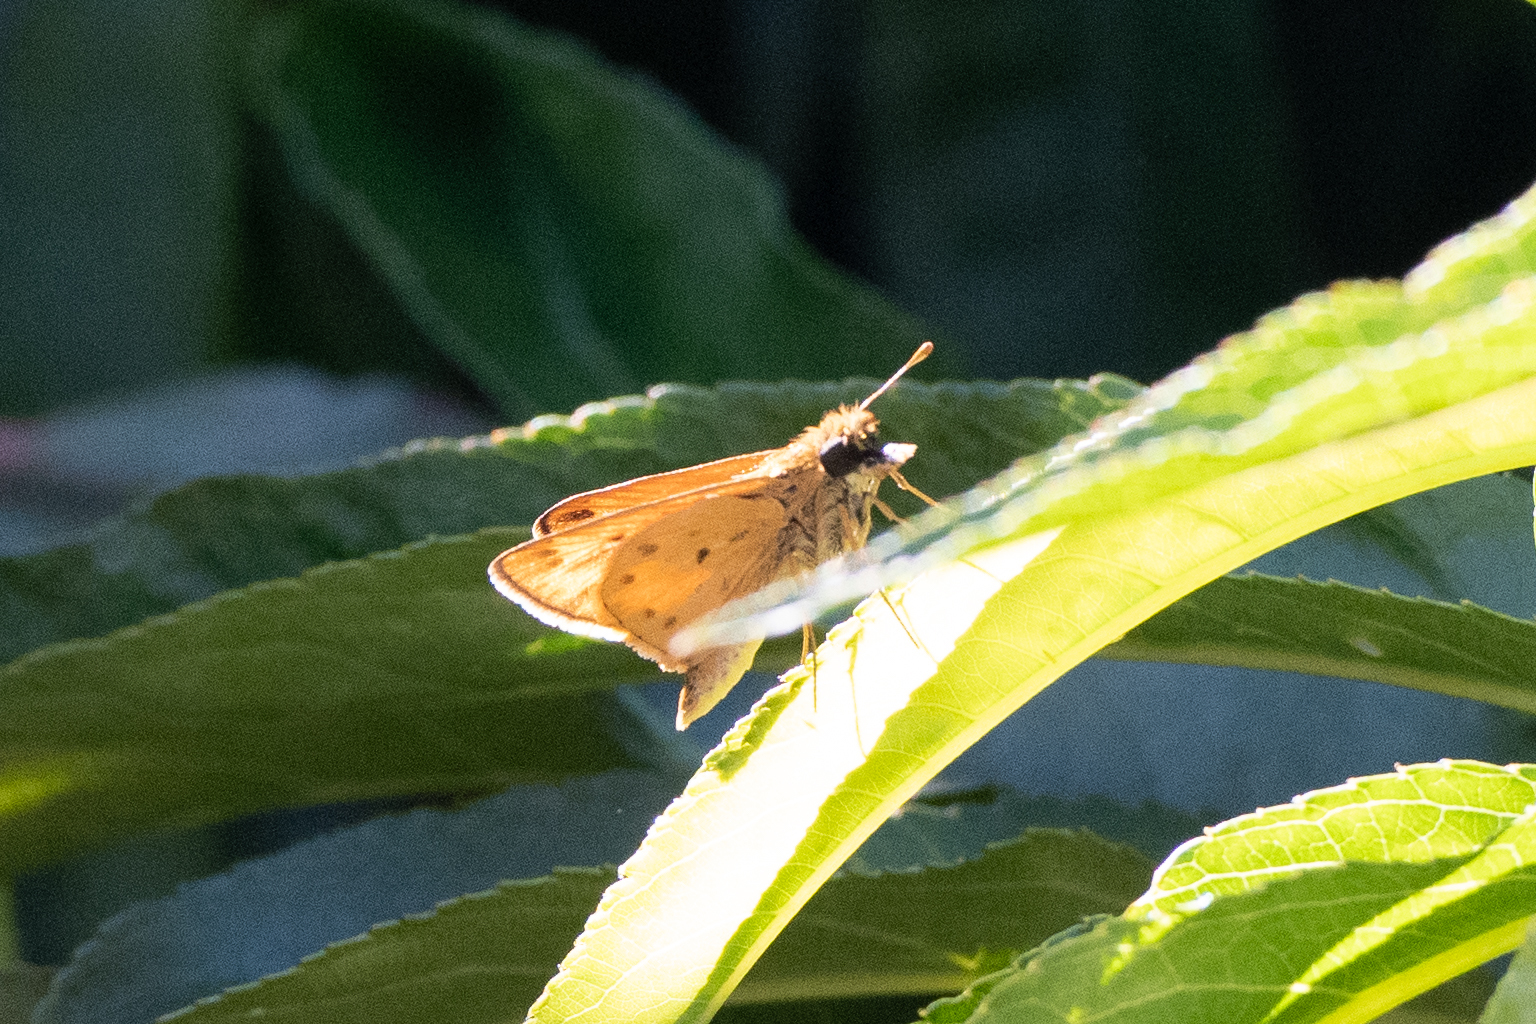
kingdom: Animalia
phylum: Arthropoda
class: Insecta
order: Lepidoptera
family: Hesperiidae
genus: Hylephila
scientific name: Hylephila phyleus
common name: Fiery skipper
